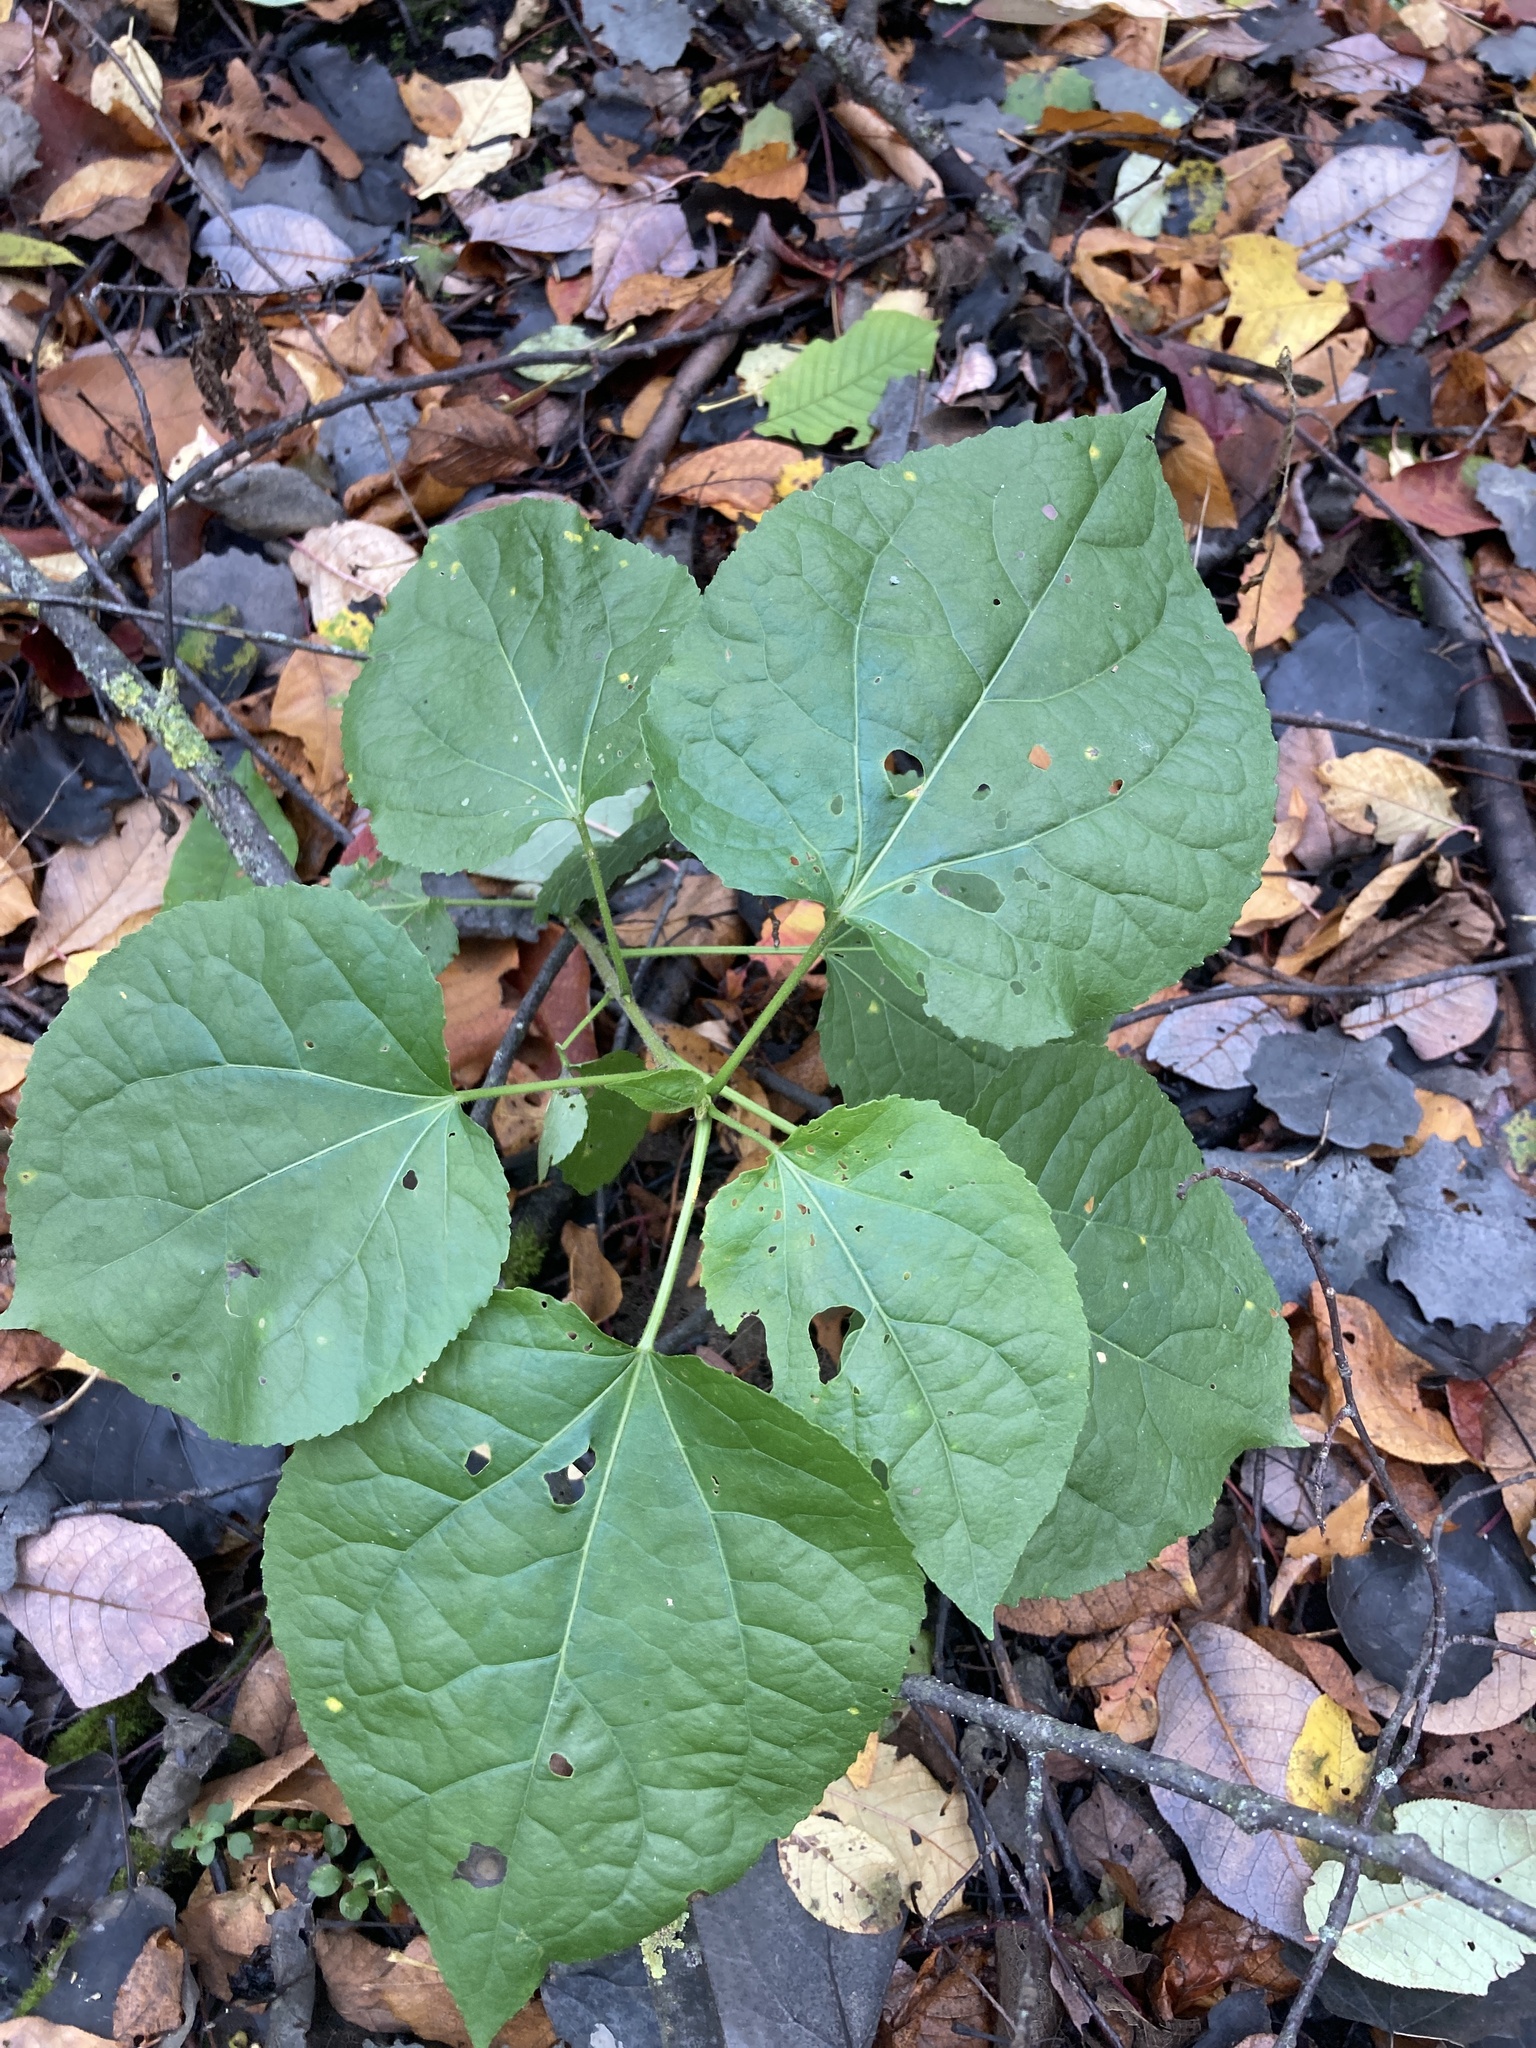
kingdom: Plantae
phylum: Tracheophyta
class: Magnoliopsida
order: Malpighiales
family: Salicaceae
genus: Populus
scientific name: Populus tremula
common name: European aspen
